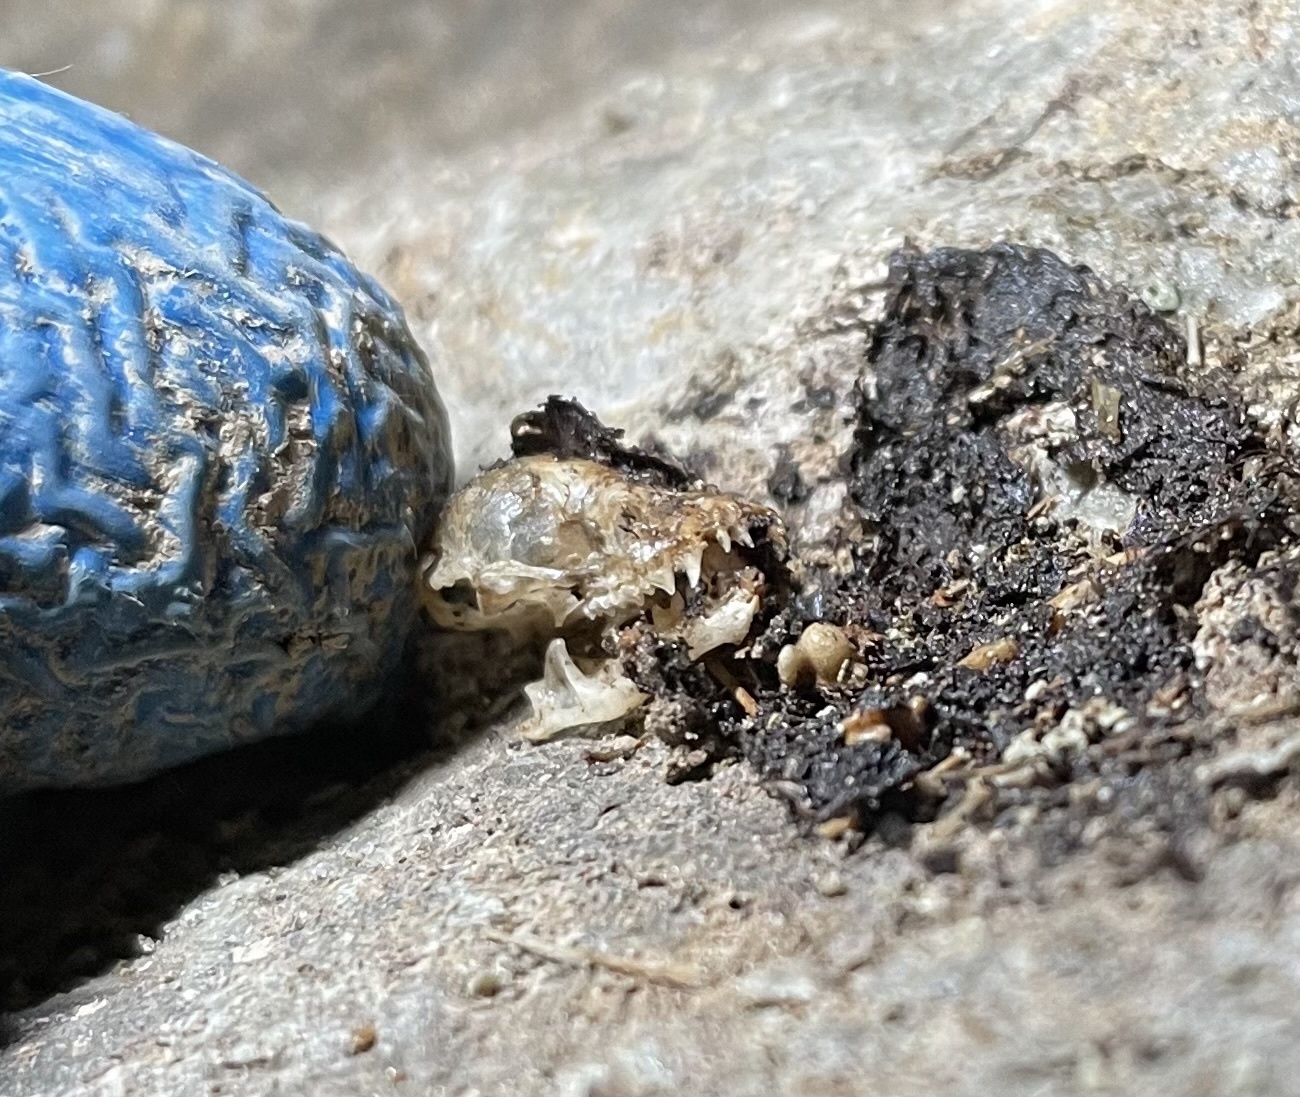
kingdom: Animalia
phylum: Chordata
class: Mammalia
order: Chiroptera
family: Vespertilionidae
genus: Eptesicus
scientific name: Eptesicus fuscus
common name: Big brown bat
